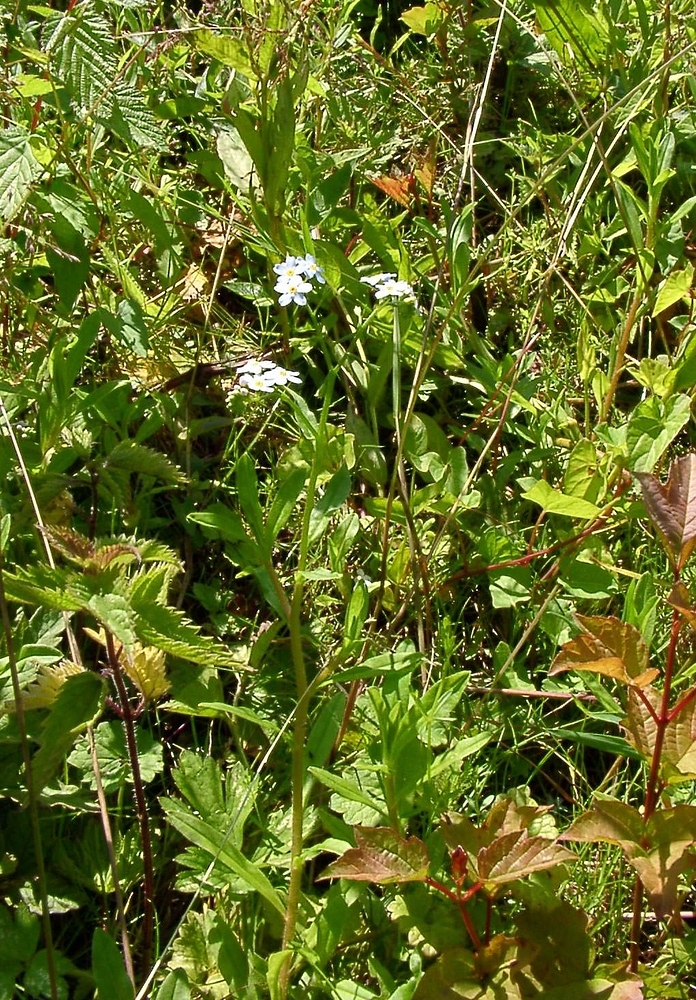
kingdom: Plantae
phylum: Tracheophyta
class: Magnoliopsida
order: Boraginales
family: Boraginaceae
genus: Myosotis
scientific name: Myosotis scorpioides
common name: Water forget-me-not
